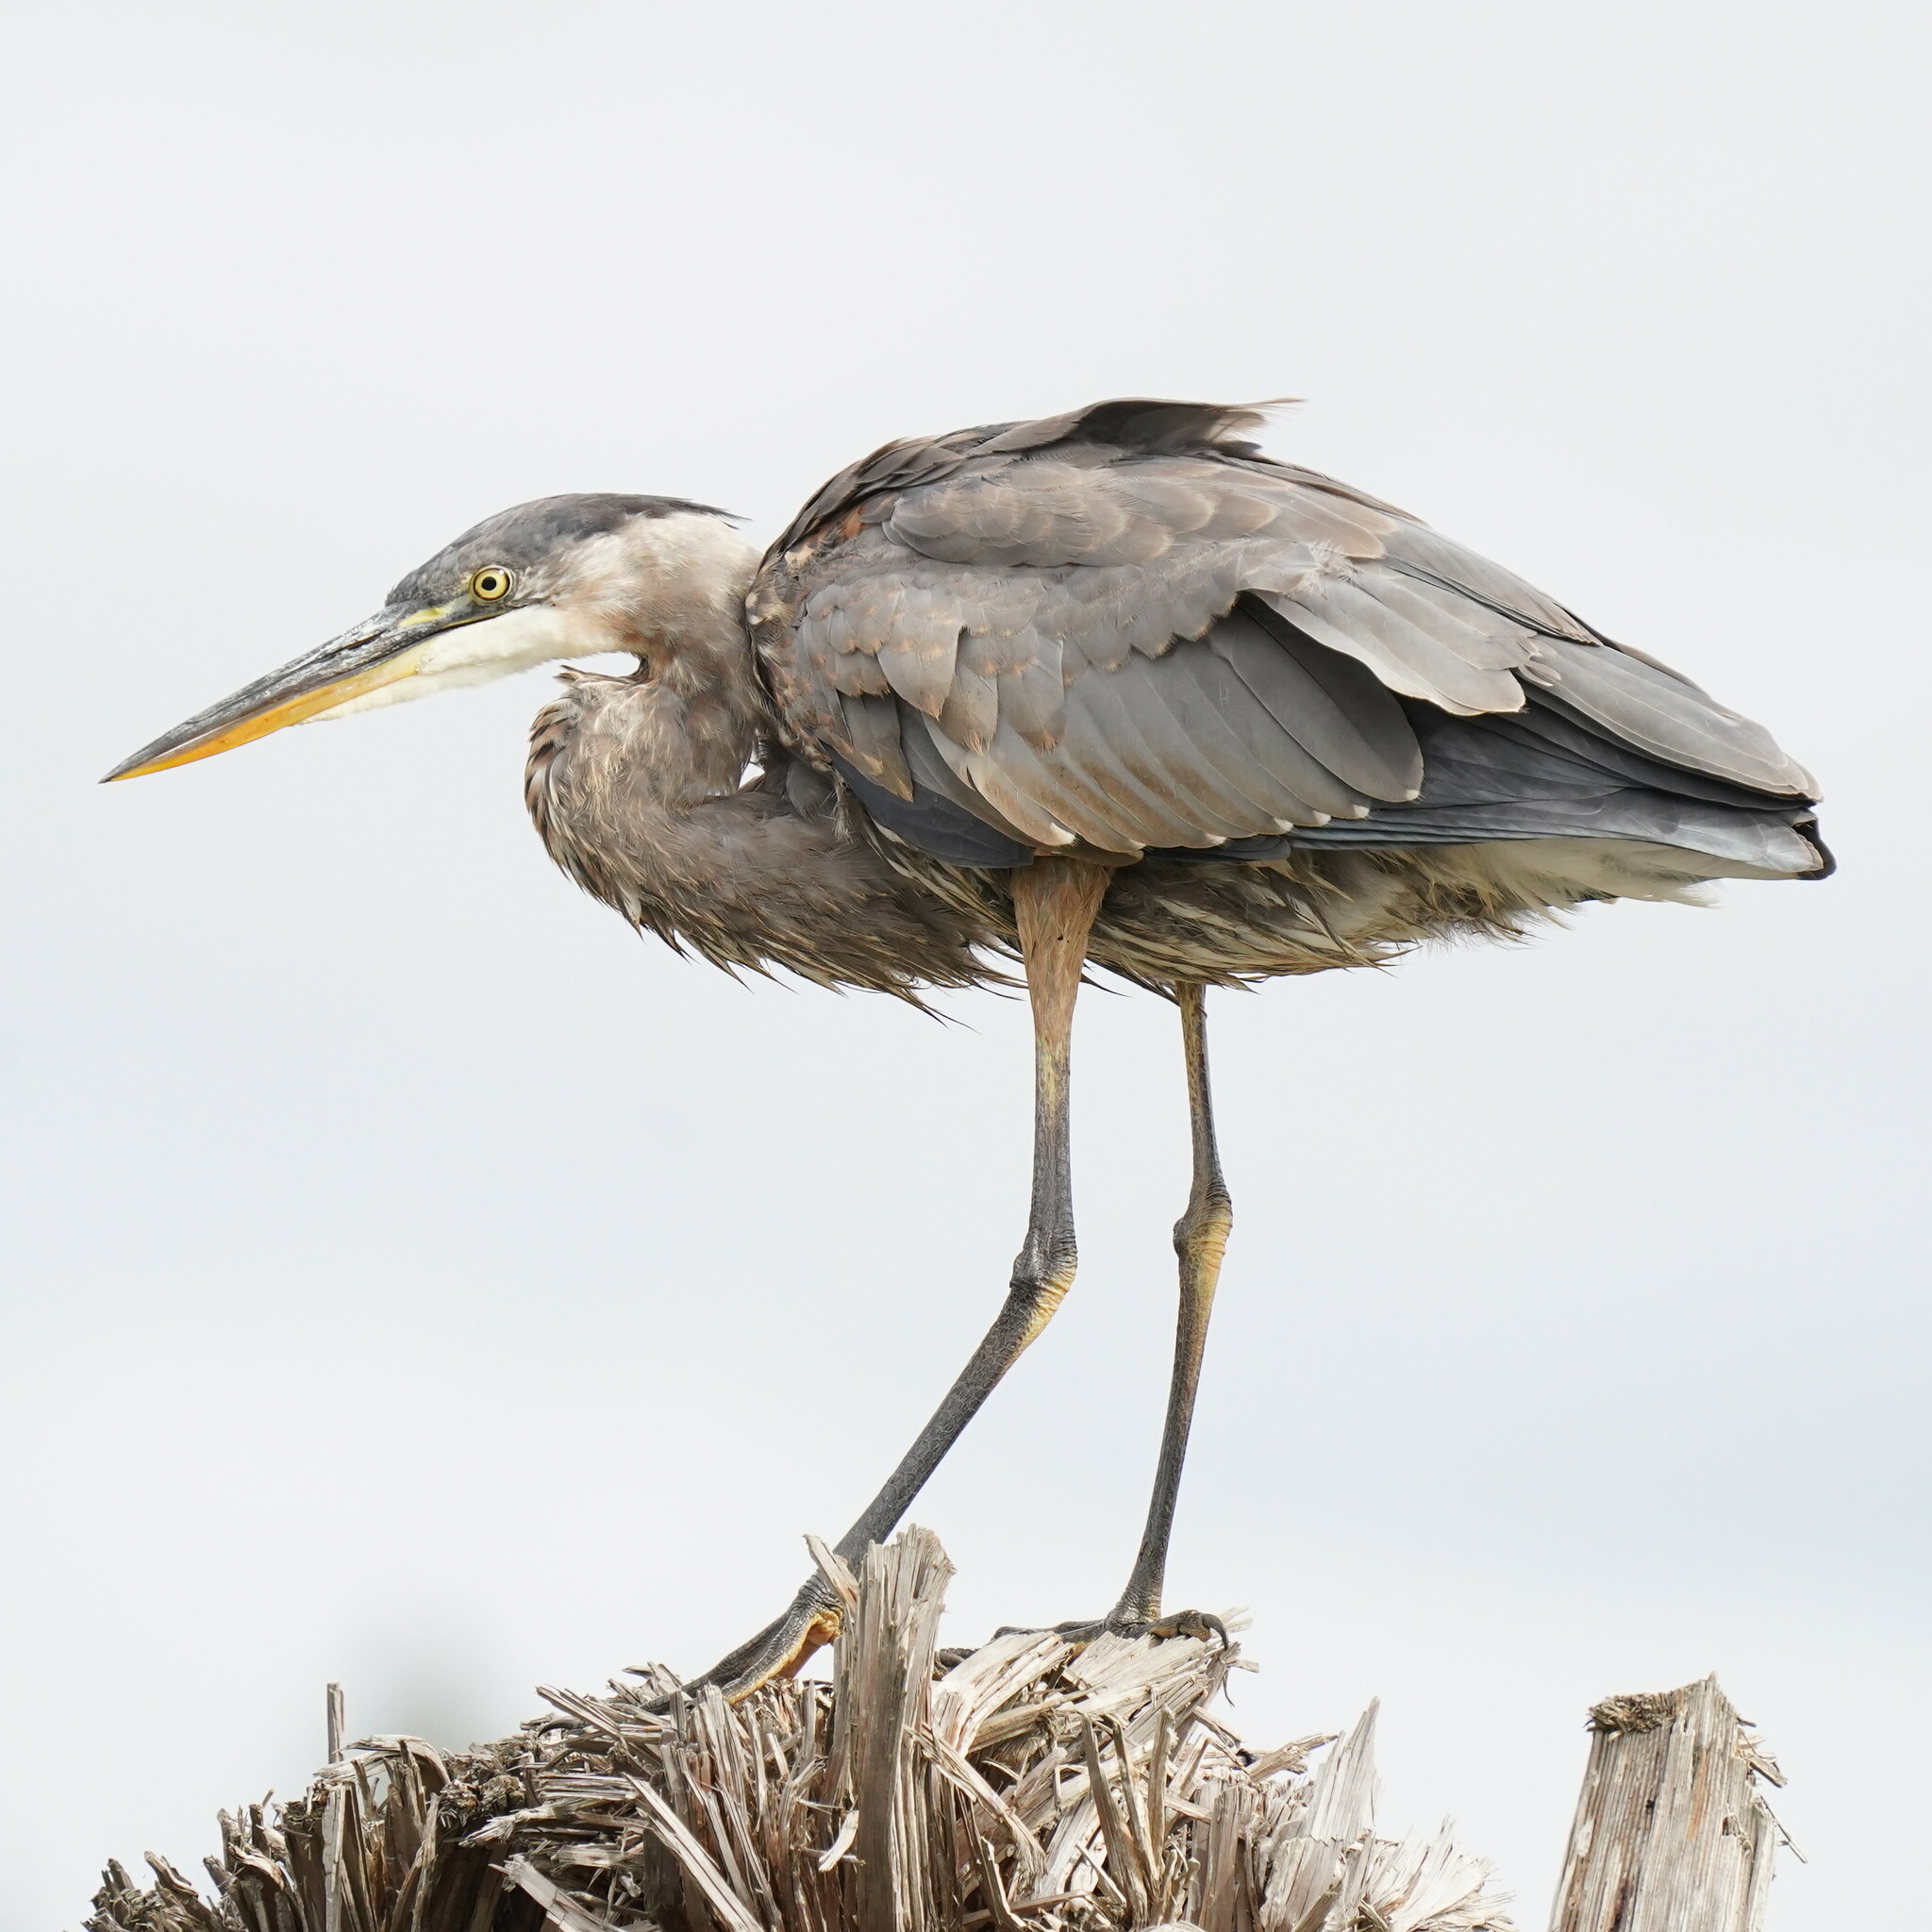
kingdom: Animalia
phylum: Chordata
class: Aves
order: Pelecaniformes
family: Ardeidae
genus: Ardea
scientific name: Ardea herodias
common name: Great blue heron
